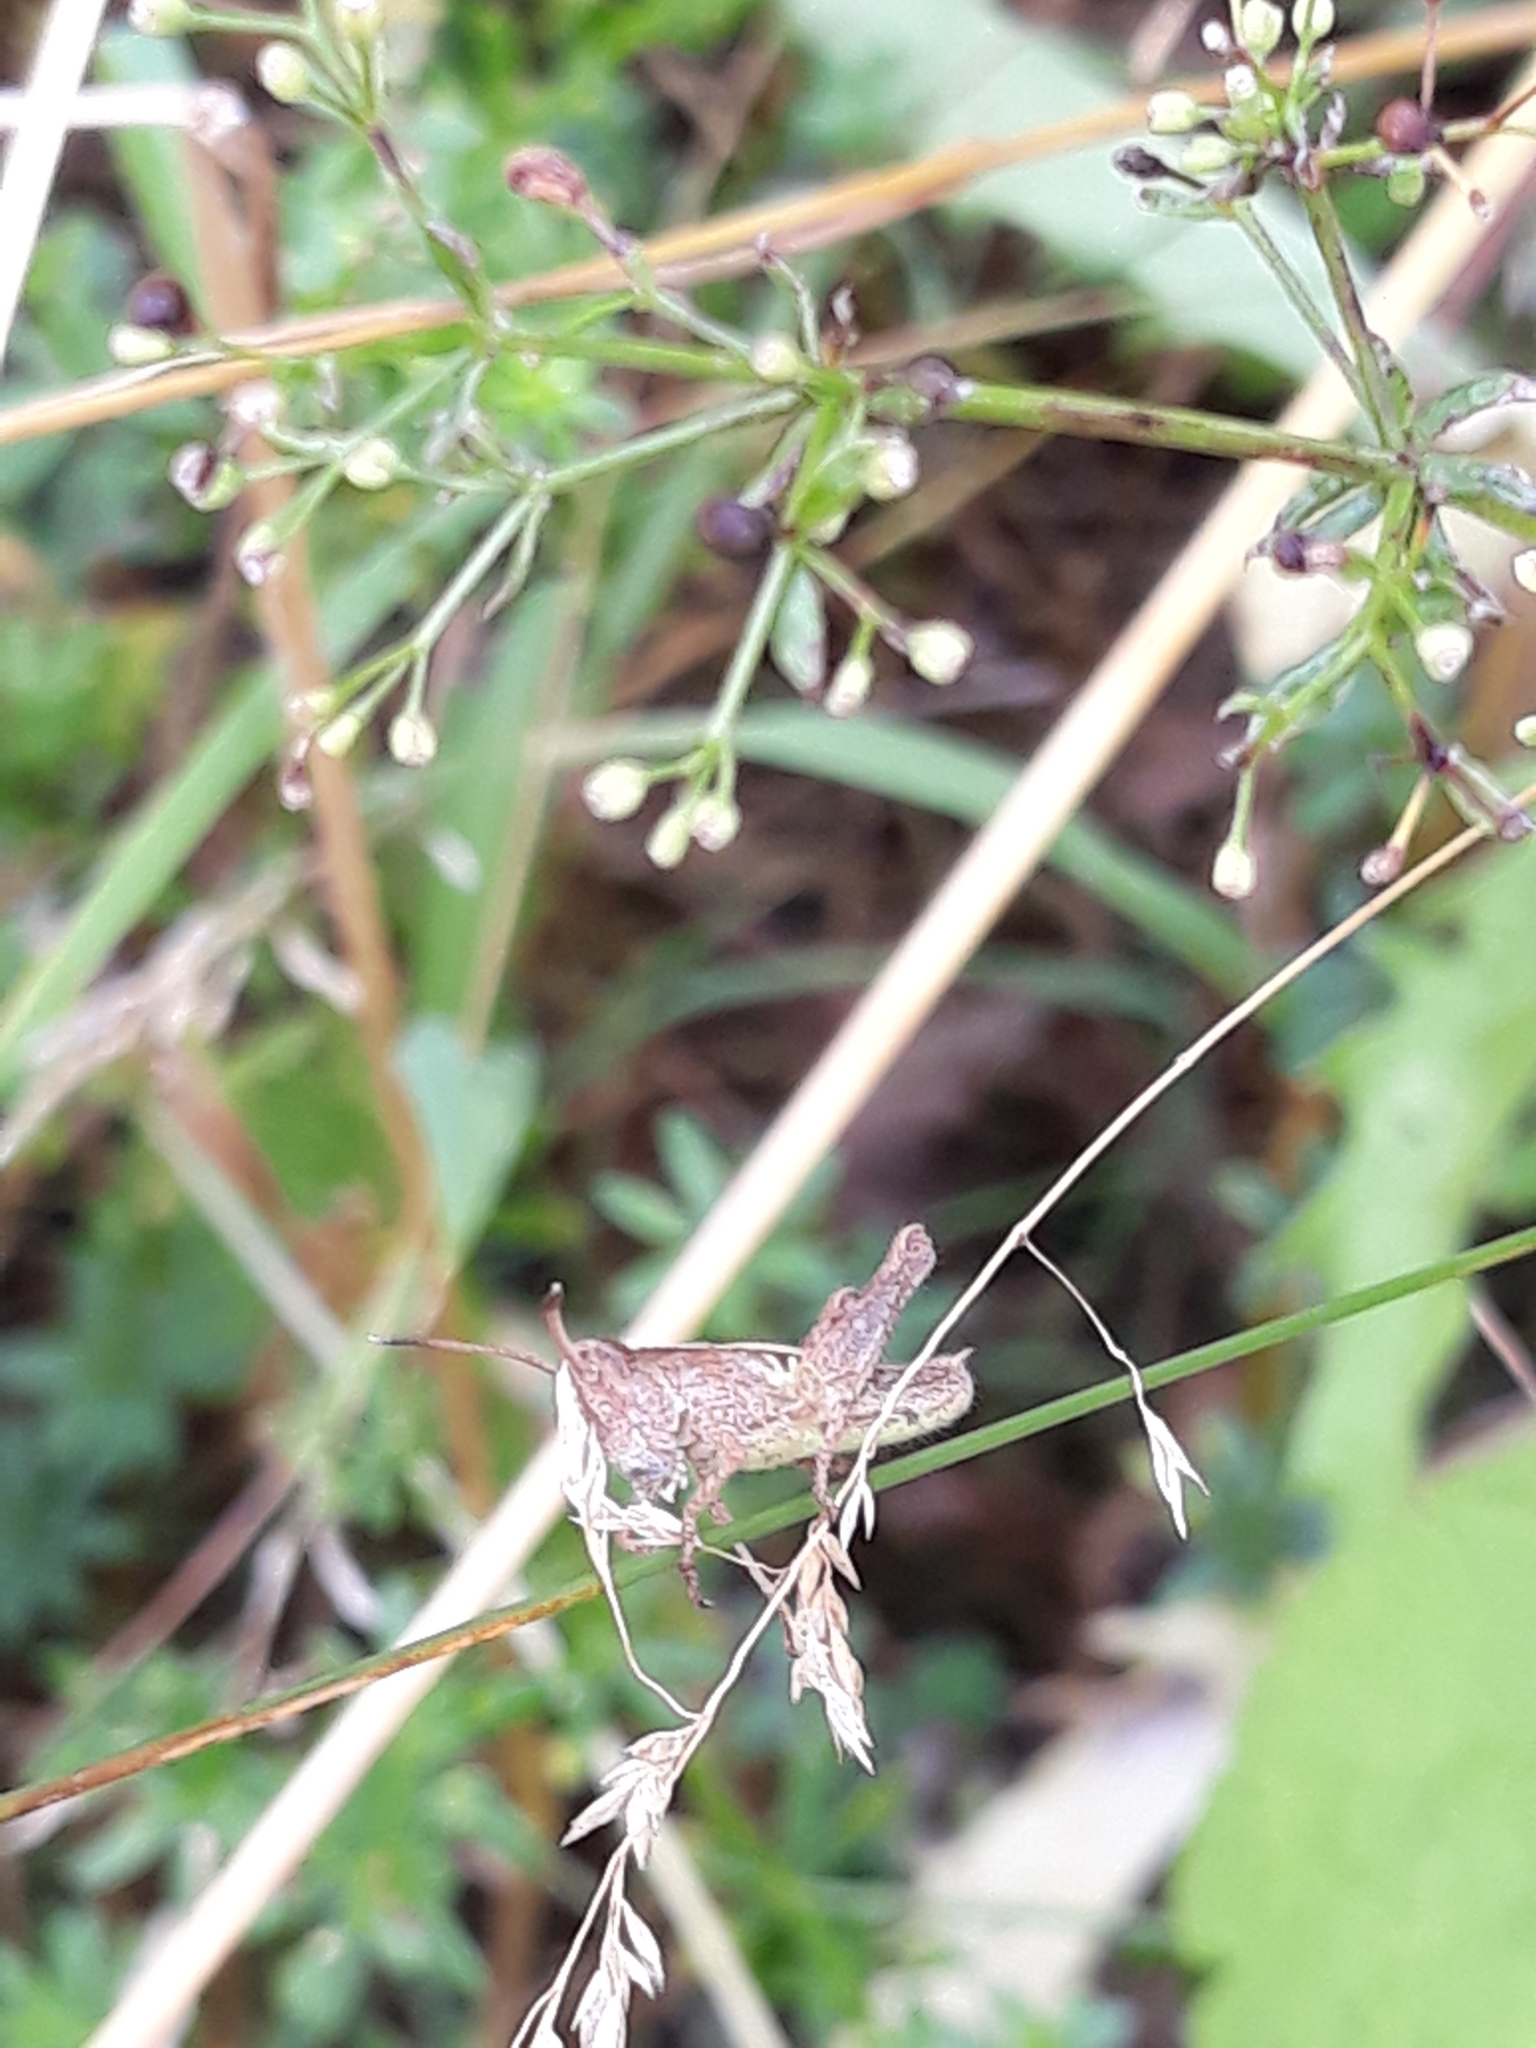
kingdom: Animalia
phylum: Arthropoda
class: Insecta
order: Orthoptera
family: Acrididae
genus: Gomphocerippus
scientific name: Gomphocerippus rufus
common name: Rufous grasshopper
